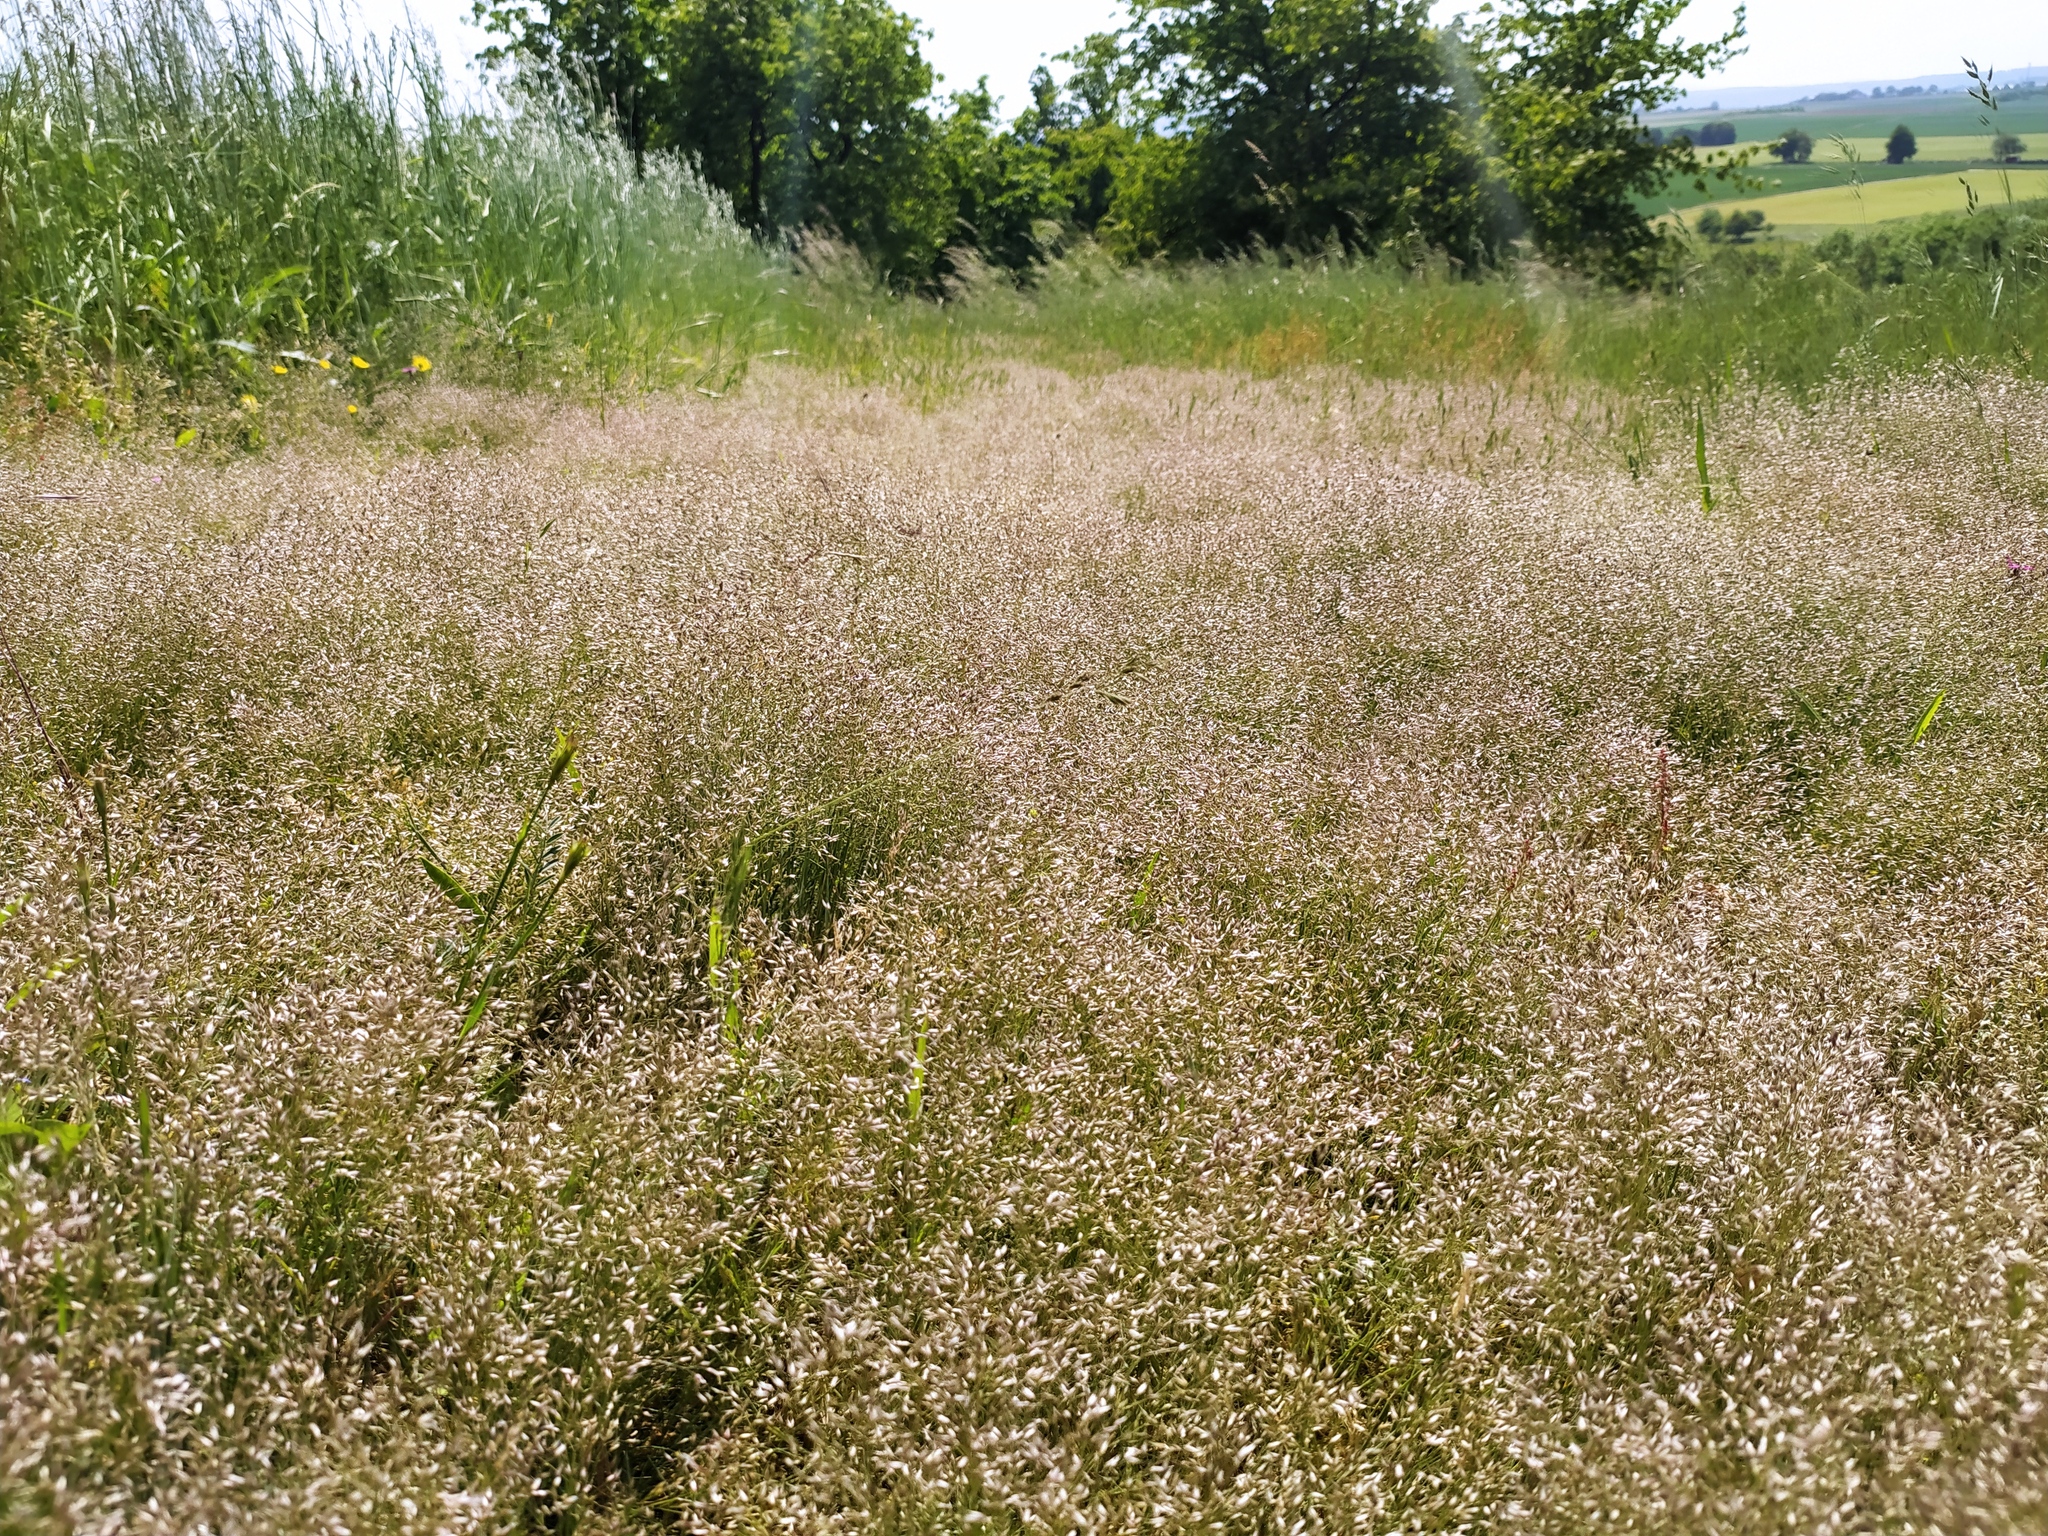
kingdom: Plantae
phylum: Tracheophyta
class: Liliopsida
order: Poales
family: Poaceae
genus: Aira
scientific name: Aira caryophyllea
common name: Silver hairgrass
